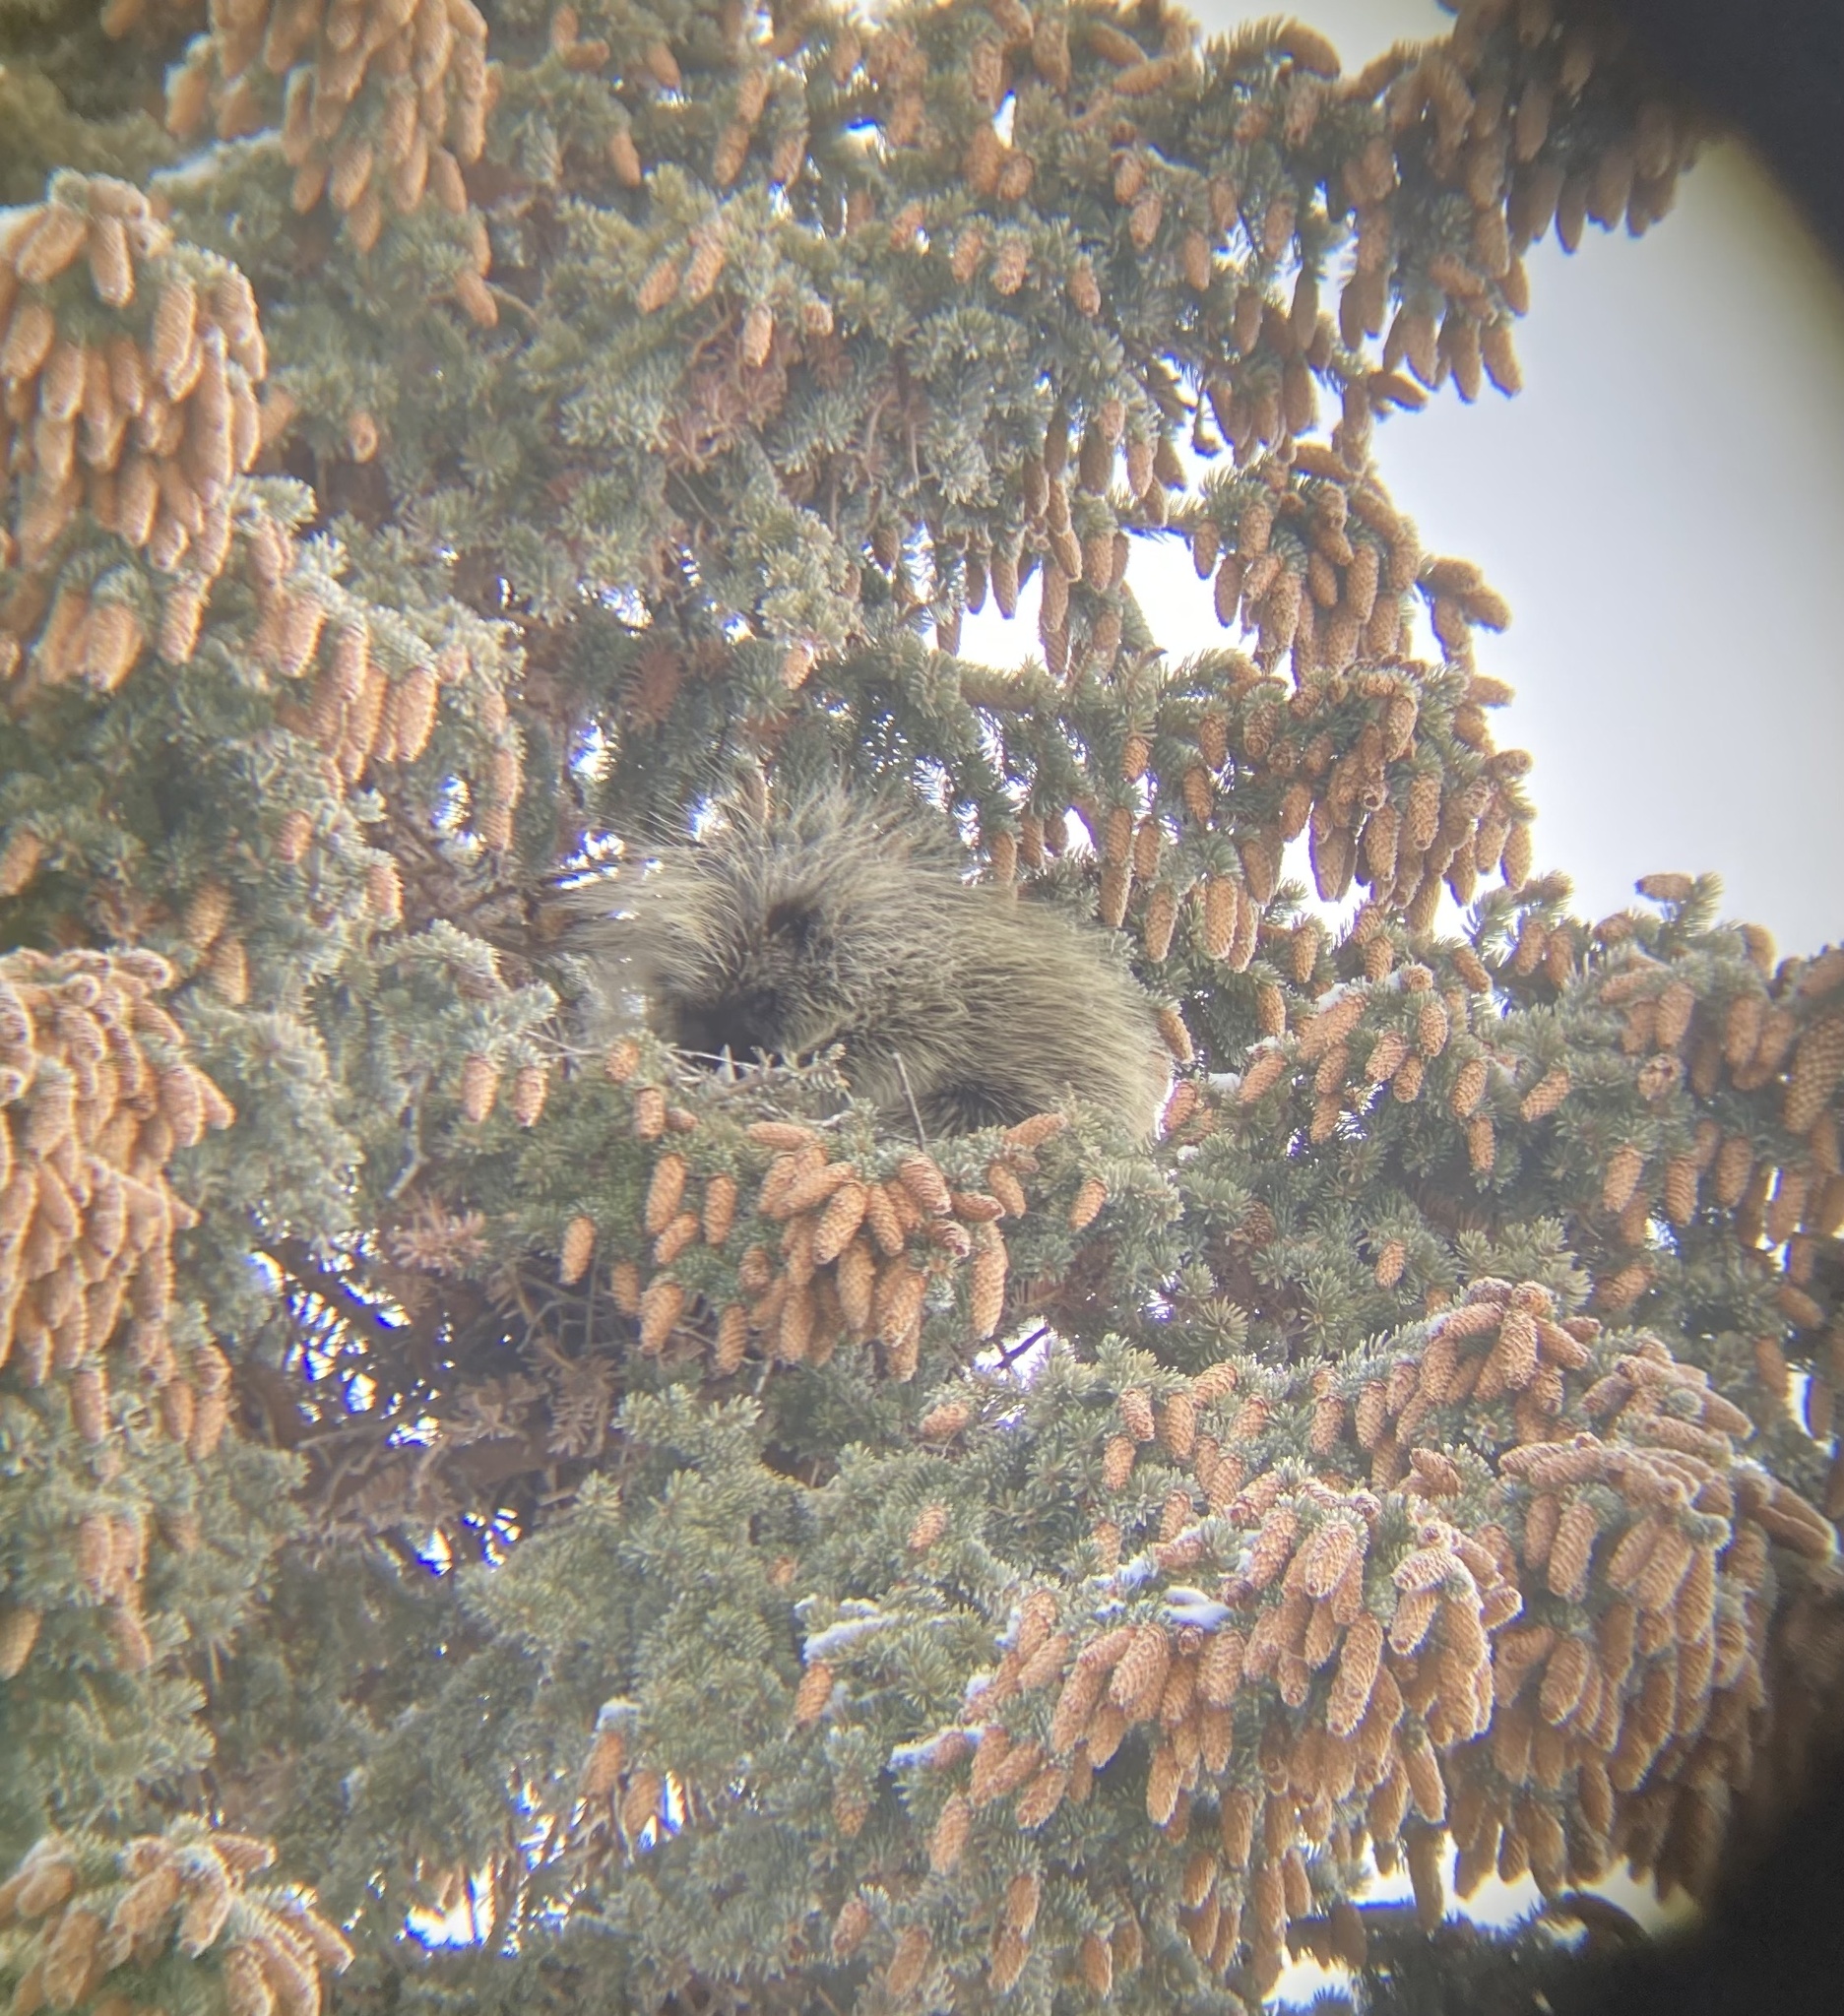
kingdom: Animalia
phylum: Chordata
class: Mammalia
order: Rodentia
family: Erethizontidae
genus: Erethizon
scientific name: Erethizon dorsatus
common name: North american porcupine
